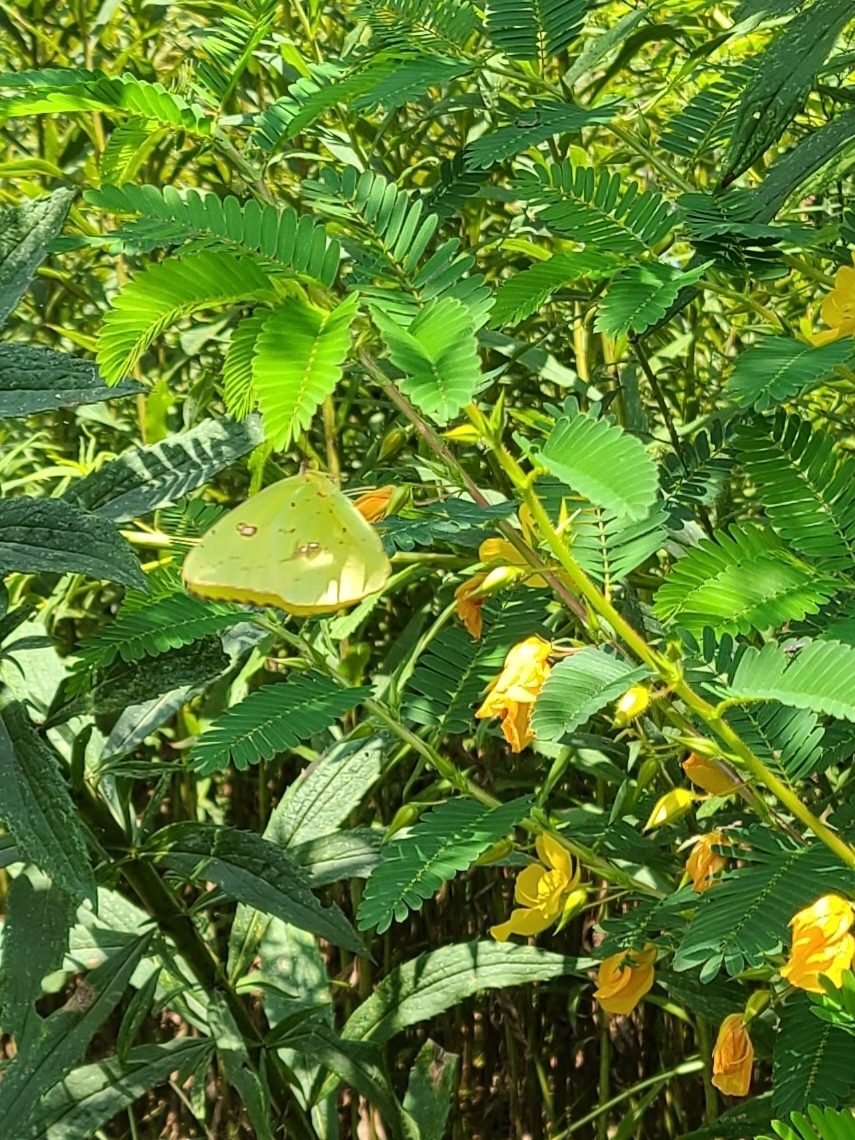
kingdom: Animalia
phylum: Arthropoda
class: Insecta
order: Lepidoptera
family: Pieridae
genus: Phoebis
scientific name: Phoebis sennae
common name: Cloudless sulphur
